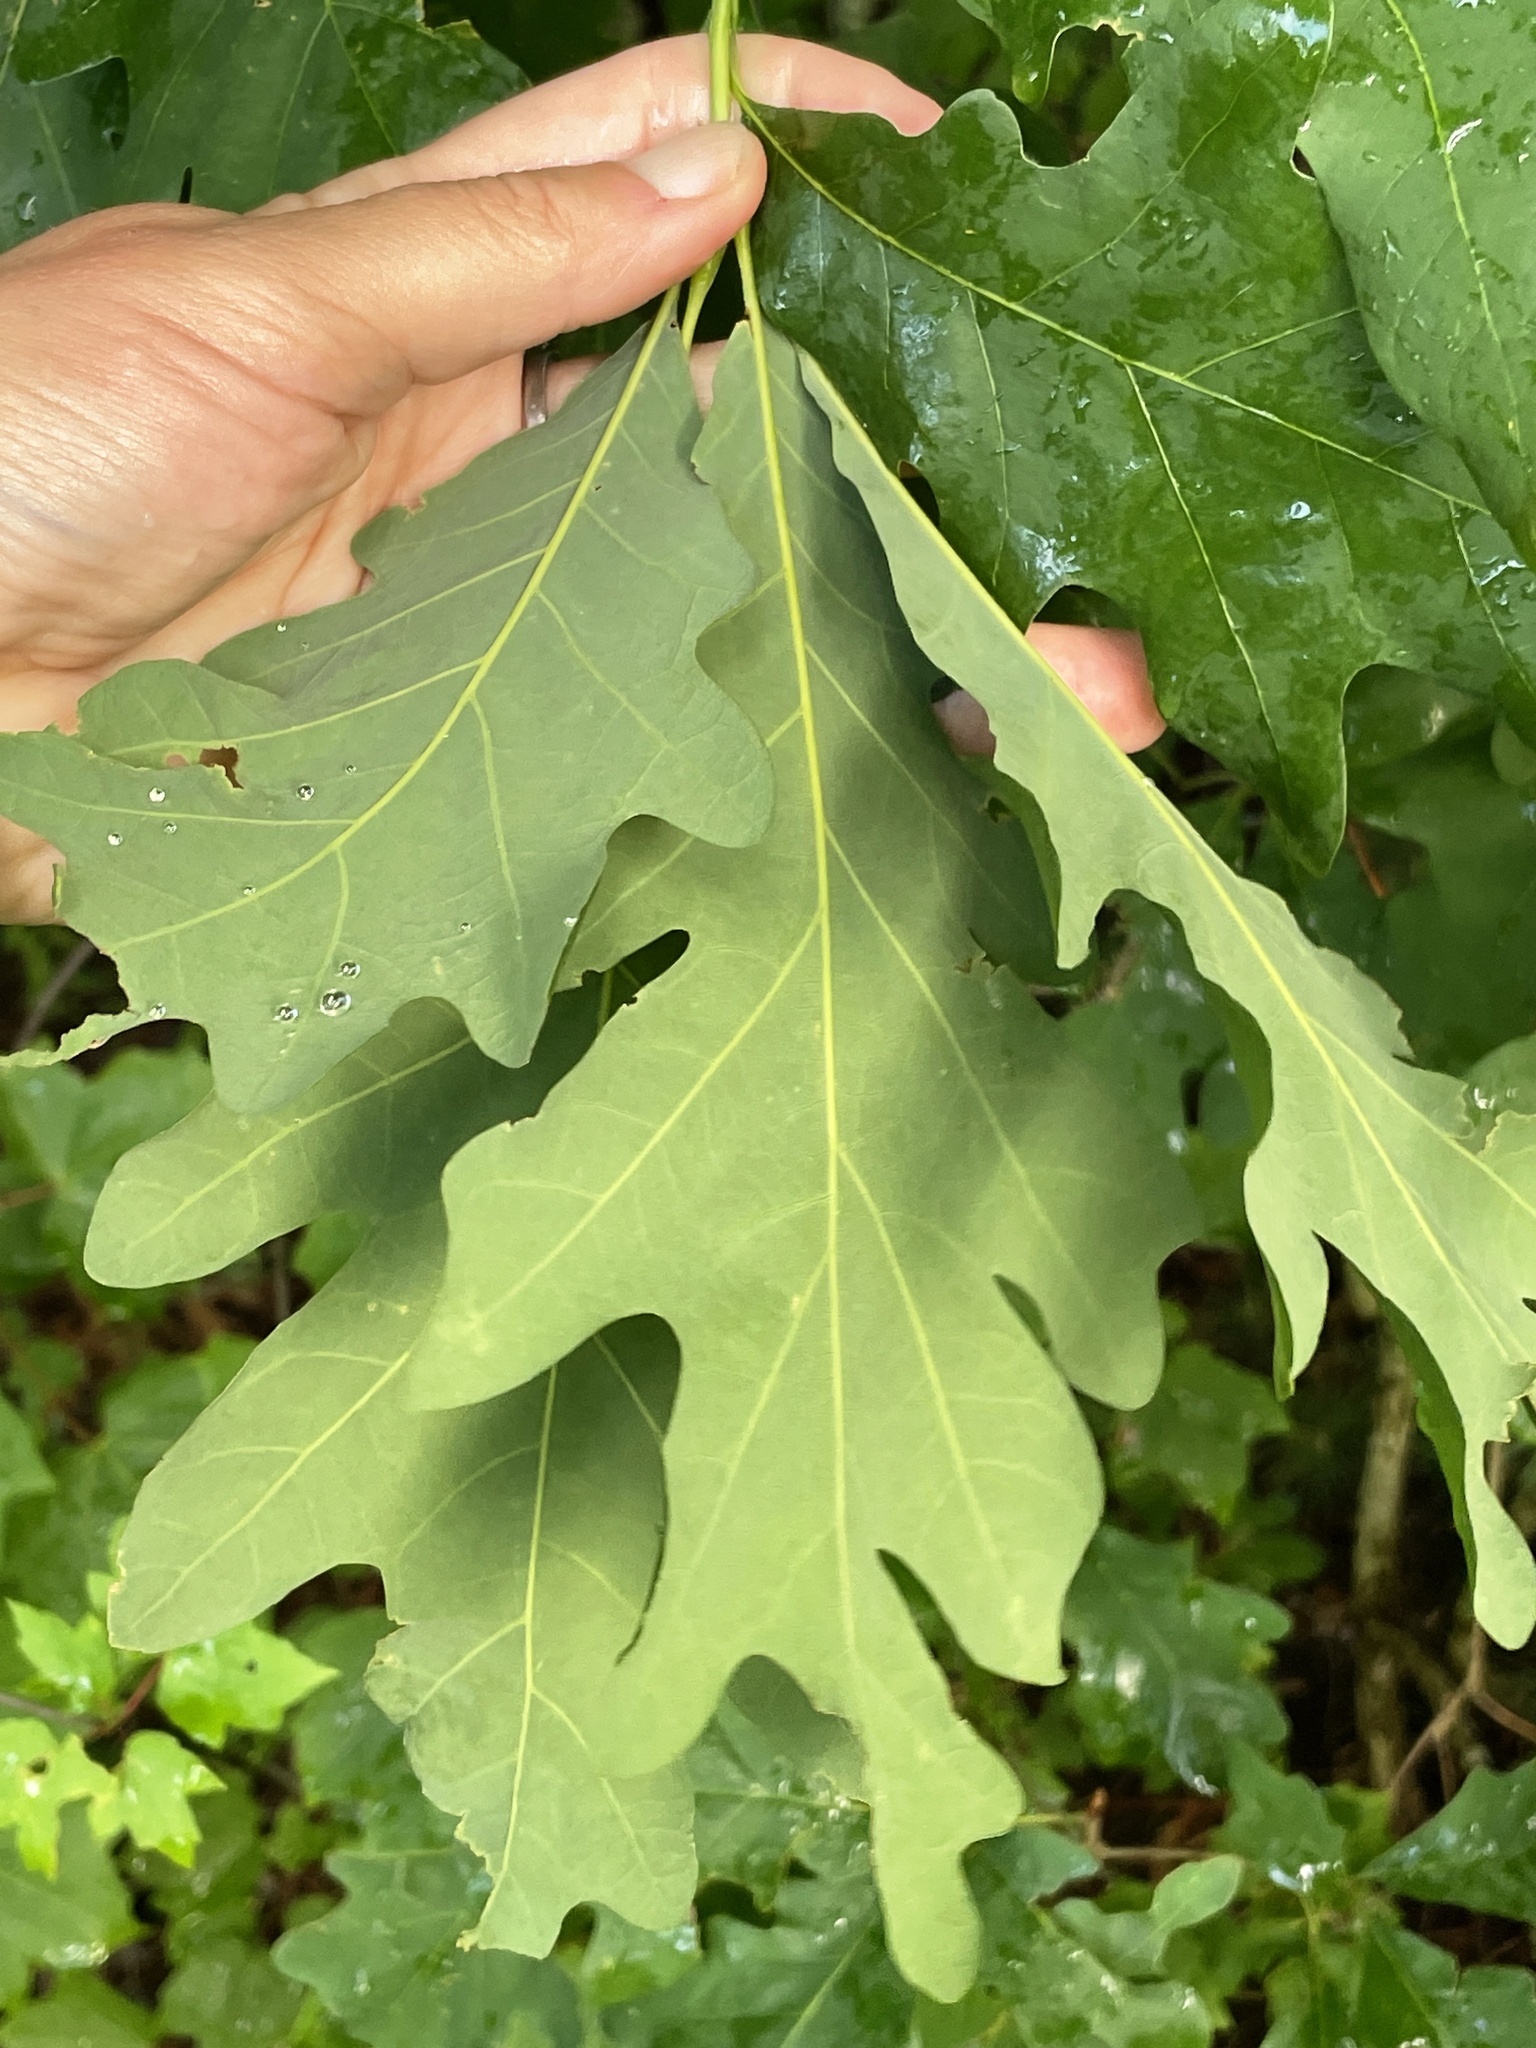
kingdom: Plantae
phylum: Tracheophyta
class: Magnoliopsida
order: Fagales
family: Fagaceae
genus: Quercus
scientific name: Quercus alba
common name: White oak
